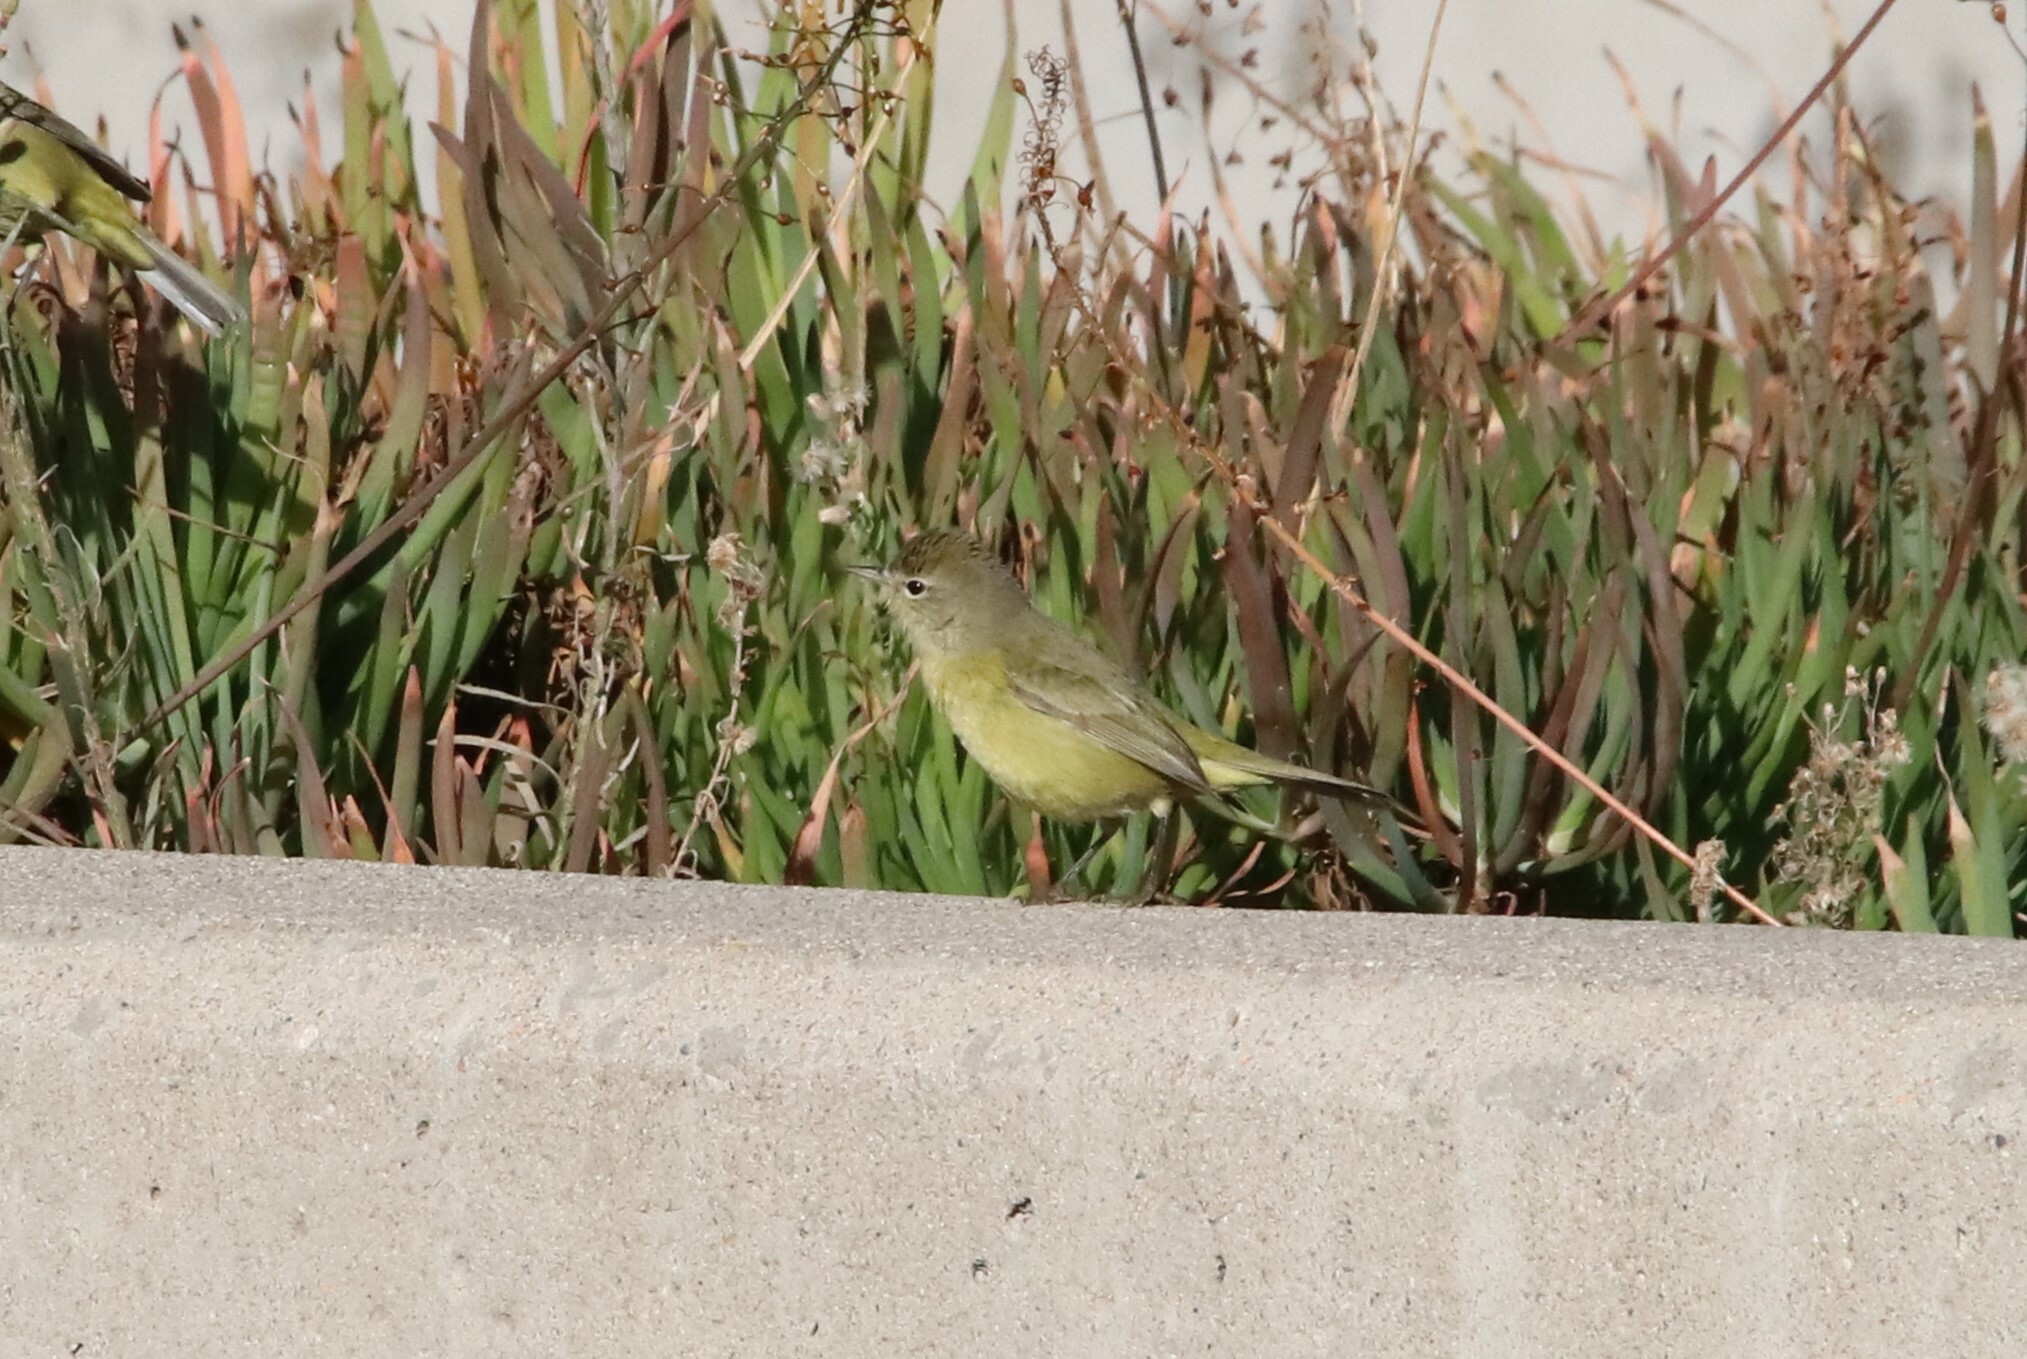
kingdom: Animalia
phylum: Chordata
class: Aves
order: Passeriformes
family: Parulidae
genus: Leiothlypis
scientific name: Leiothlypis celata
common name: Orange-crowned warbler
